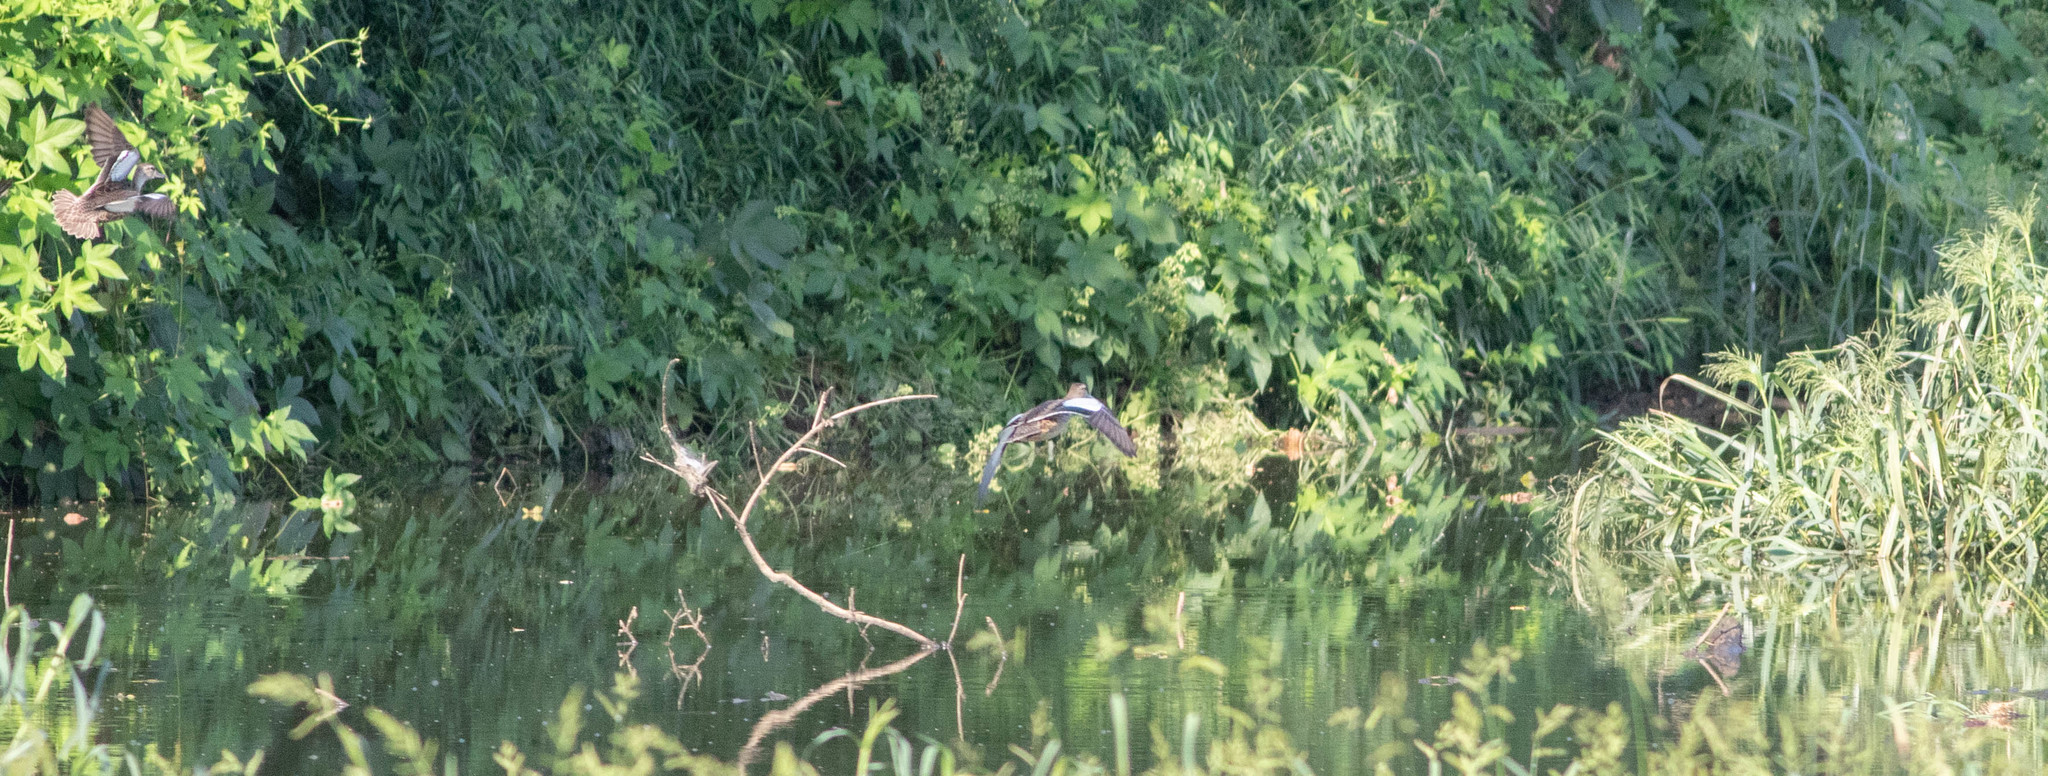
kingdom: Animalia
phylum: Chordata
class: Aves
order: Anseriformes
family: Anatidae
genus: Spatula
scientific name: Spatula discors
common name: Blue-winged teal
